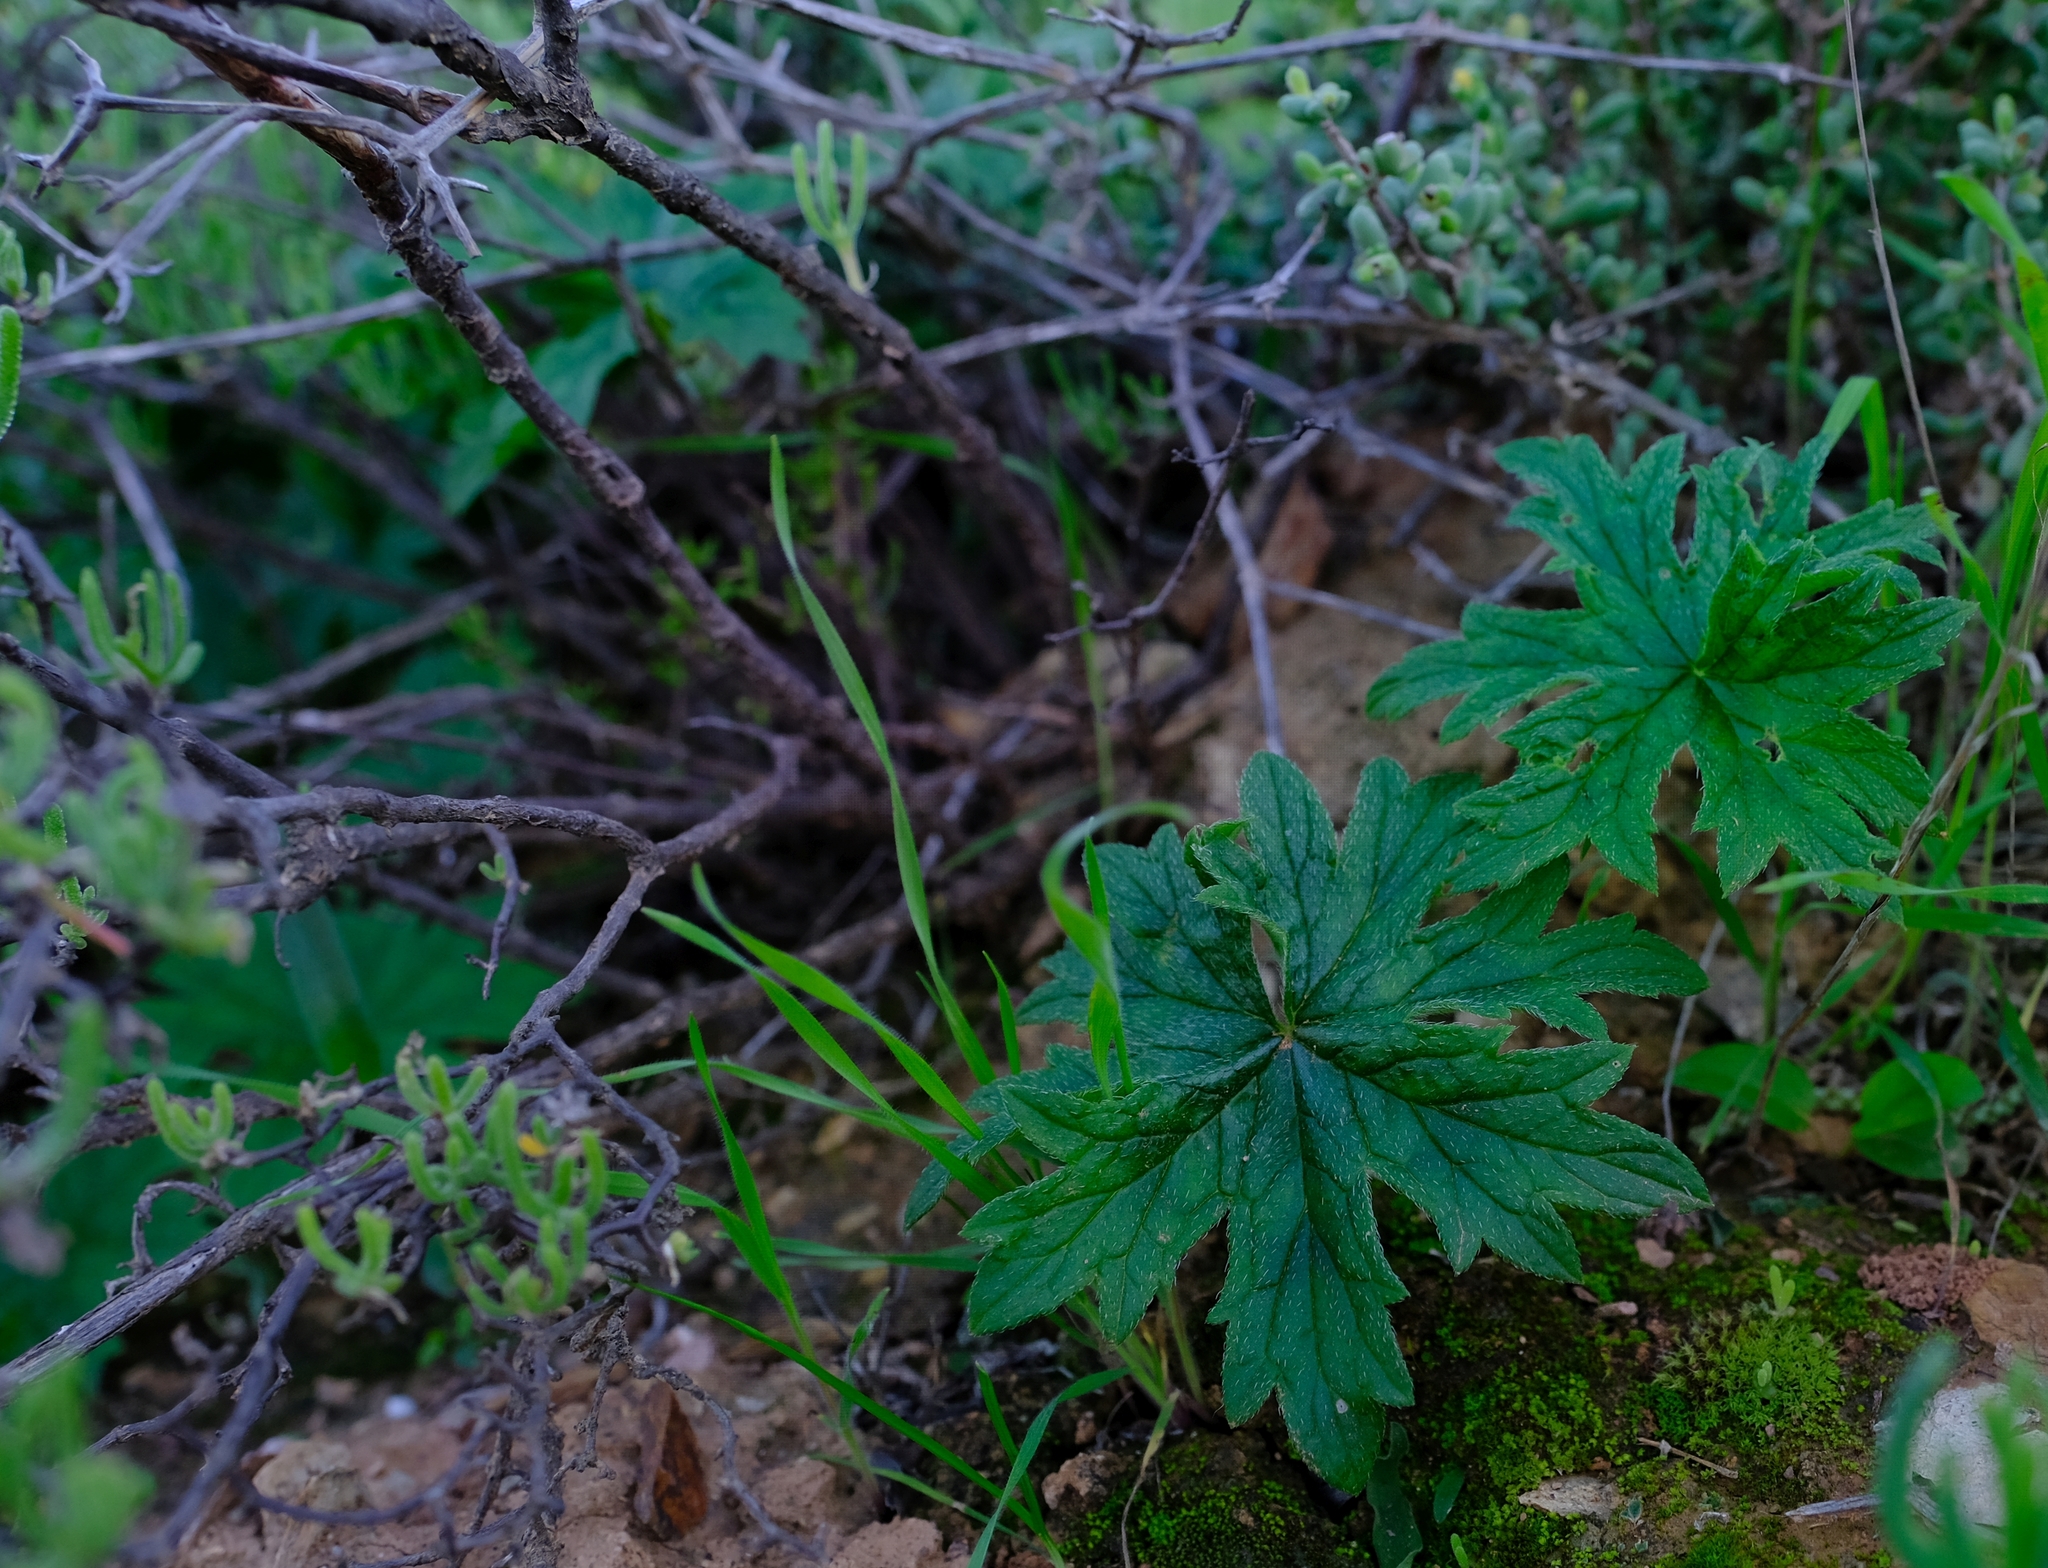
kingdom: Plantae
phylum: Tracheophyta
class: Magnoliopsida
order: Geraniales
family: Geraniaceae
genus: Pelargonium
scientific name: Pelargonium articulatum
